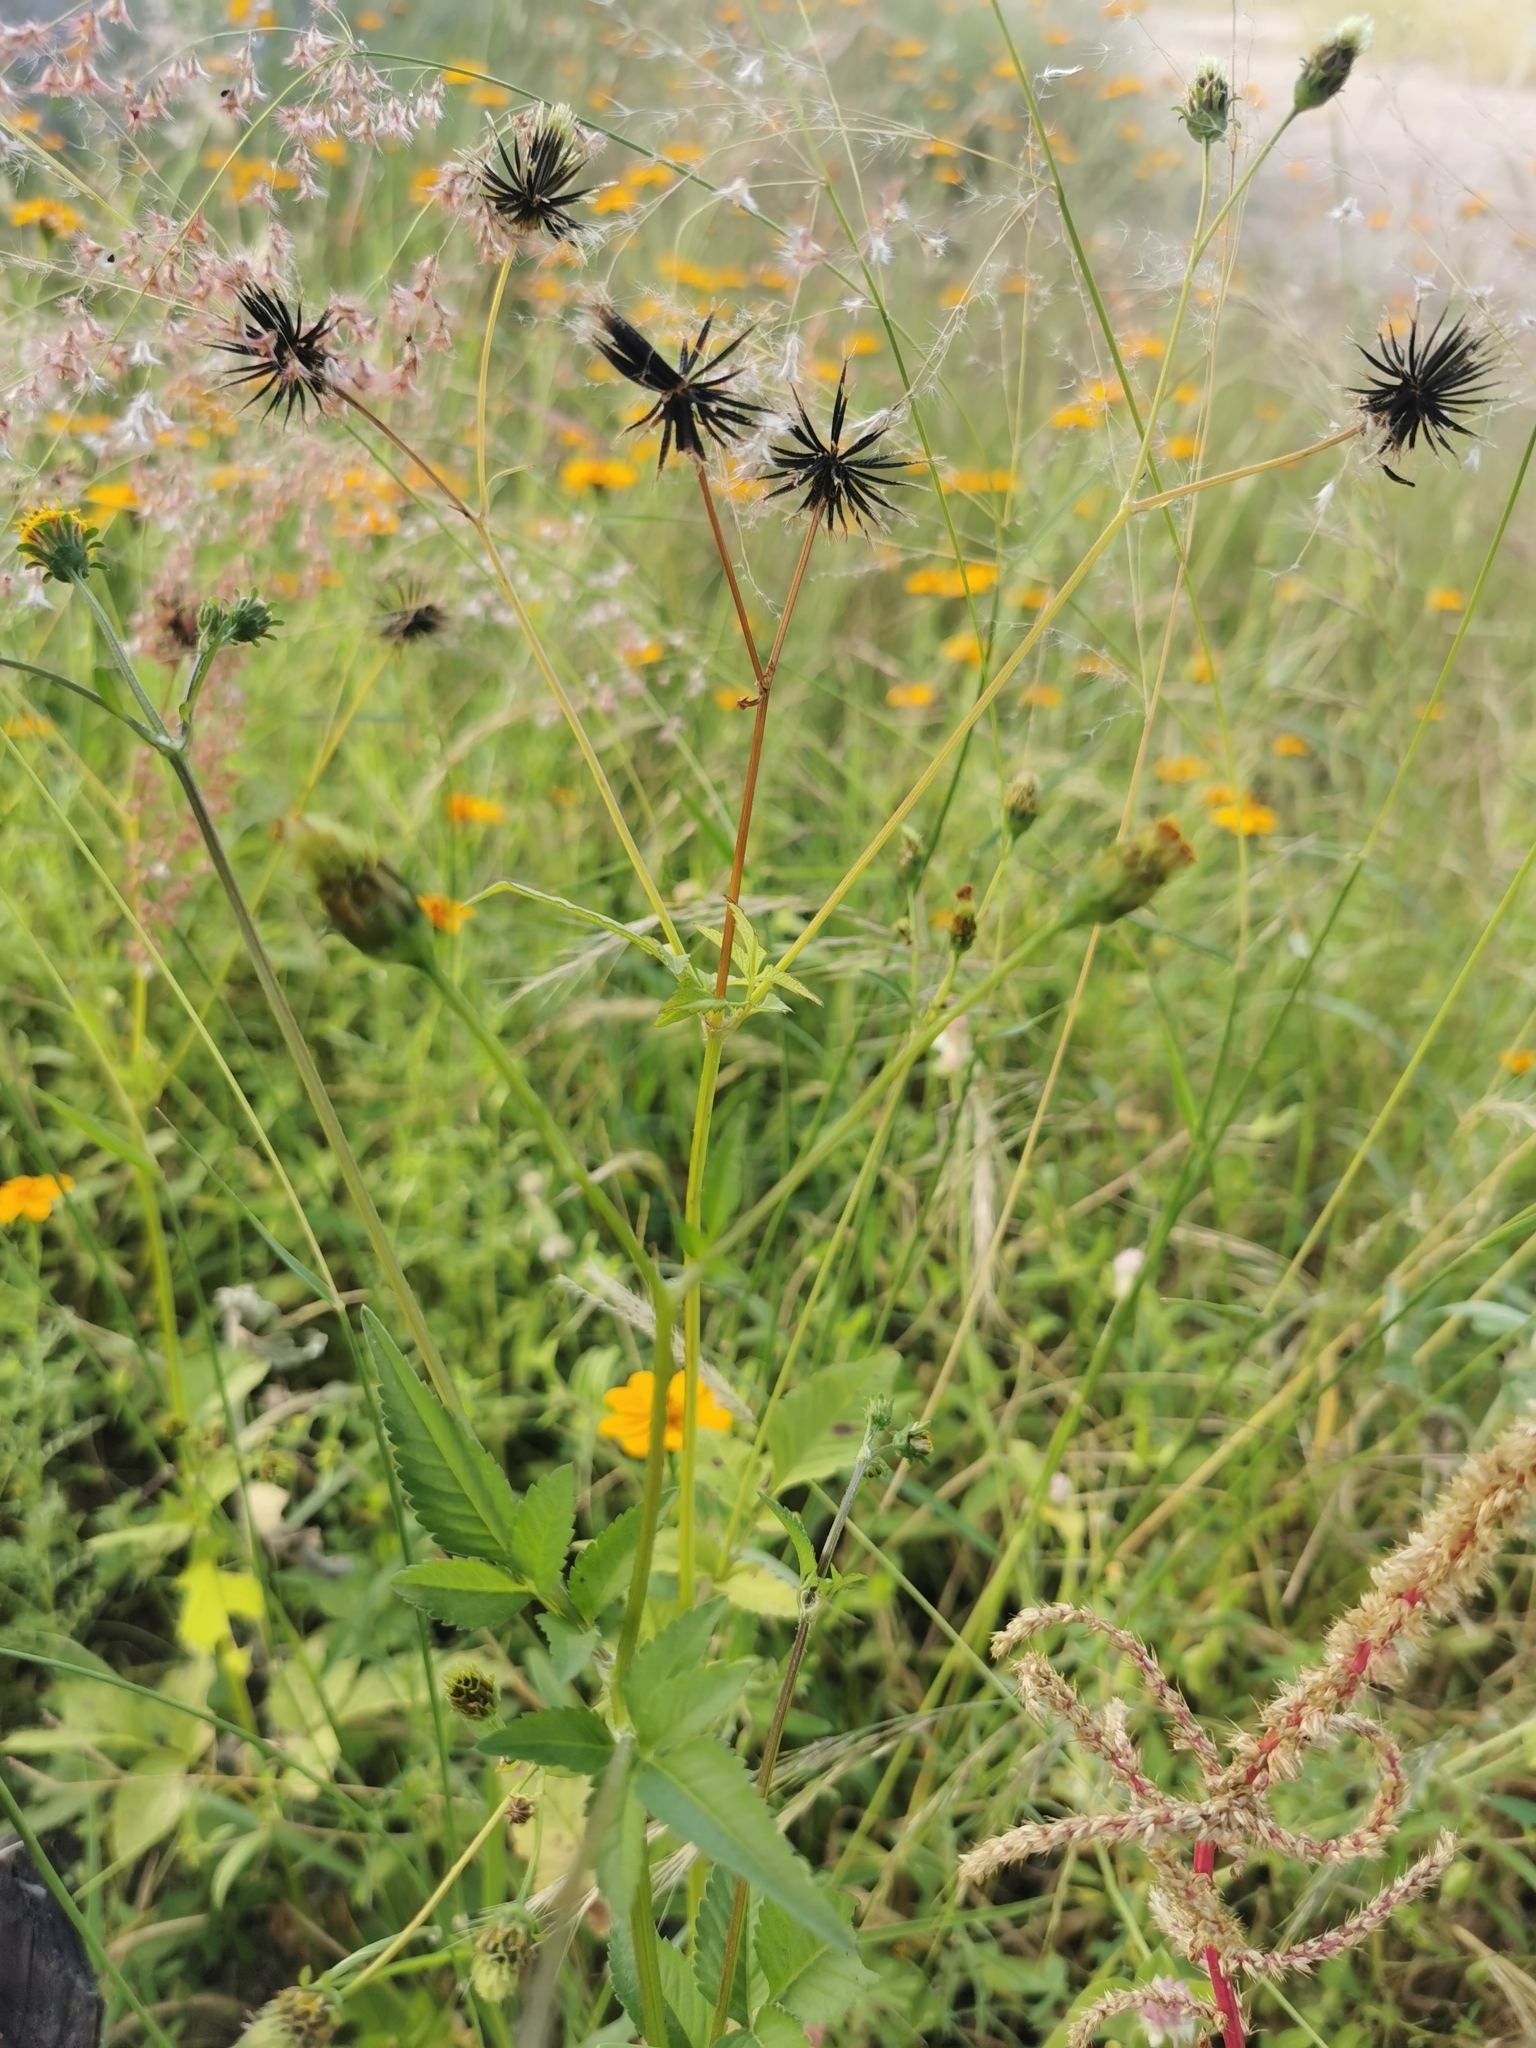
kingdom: Plantae
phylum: Tracheophyta
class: Magnoliopsida
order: Asterales
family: Asteraceae
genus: Bidens
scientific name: Bidens pilosa
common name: Black-jack
